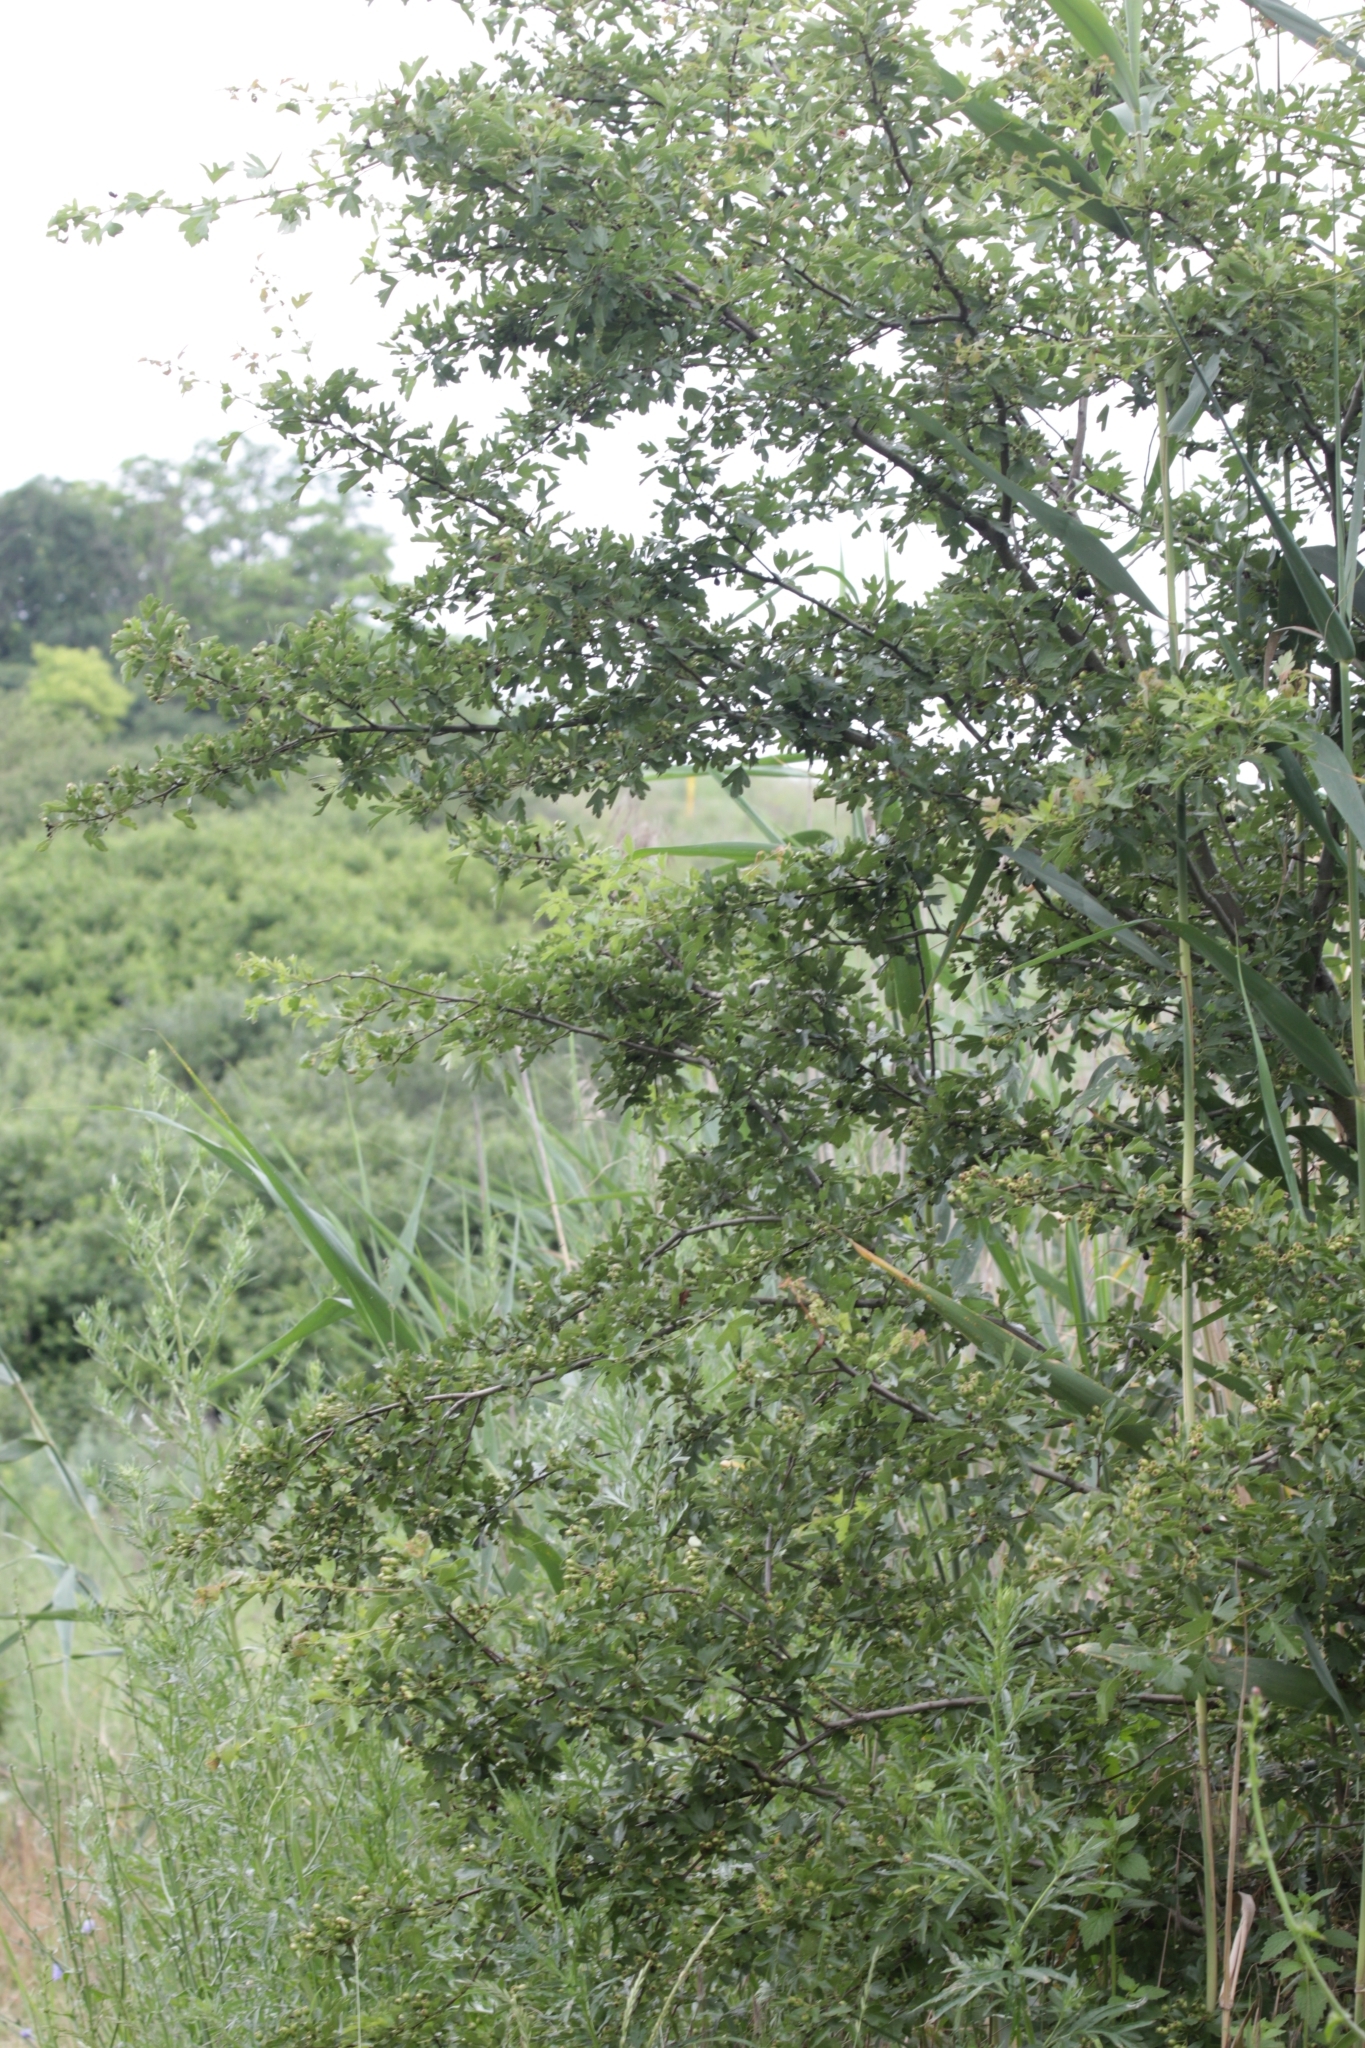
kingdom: Plantae
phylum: Tracheophyta
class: Magnoliopsida
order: Rosales
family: Rosaceae
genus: Crataegus
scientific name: Crataegus monogyna
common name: Hawthorn
